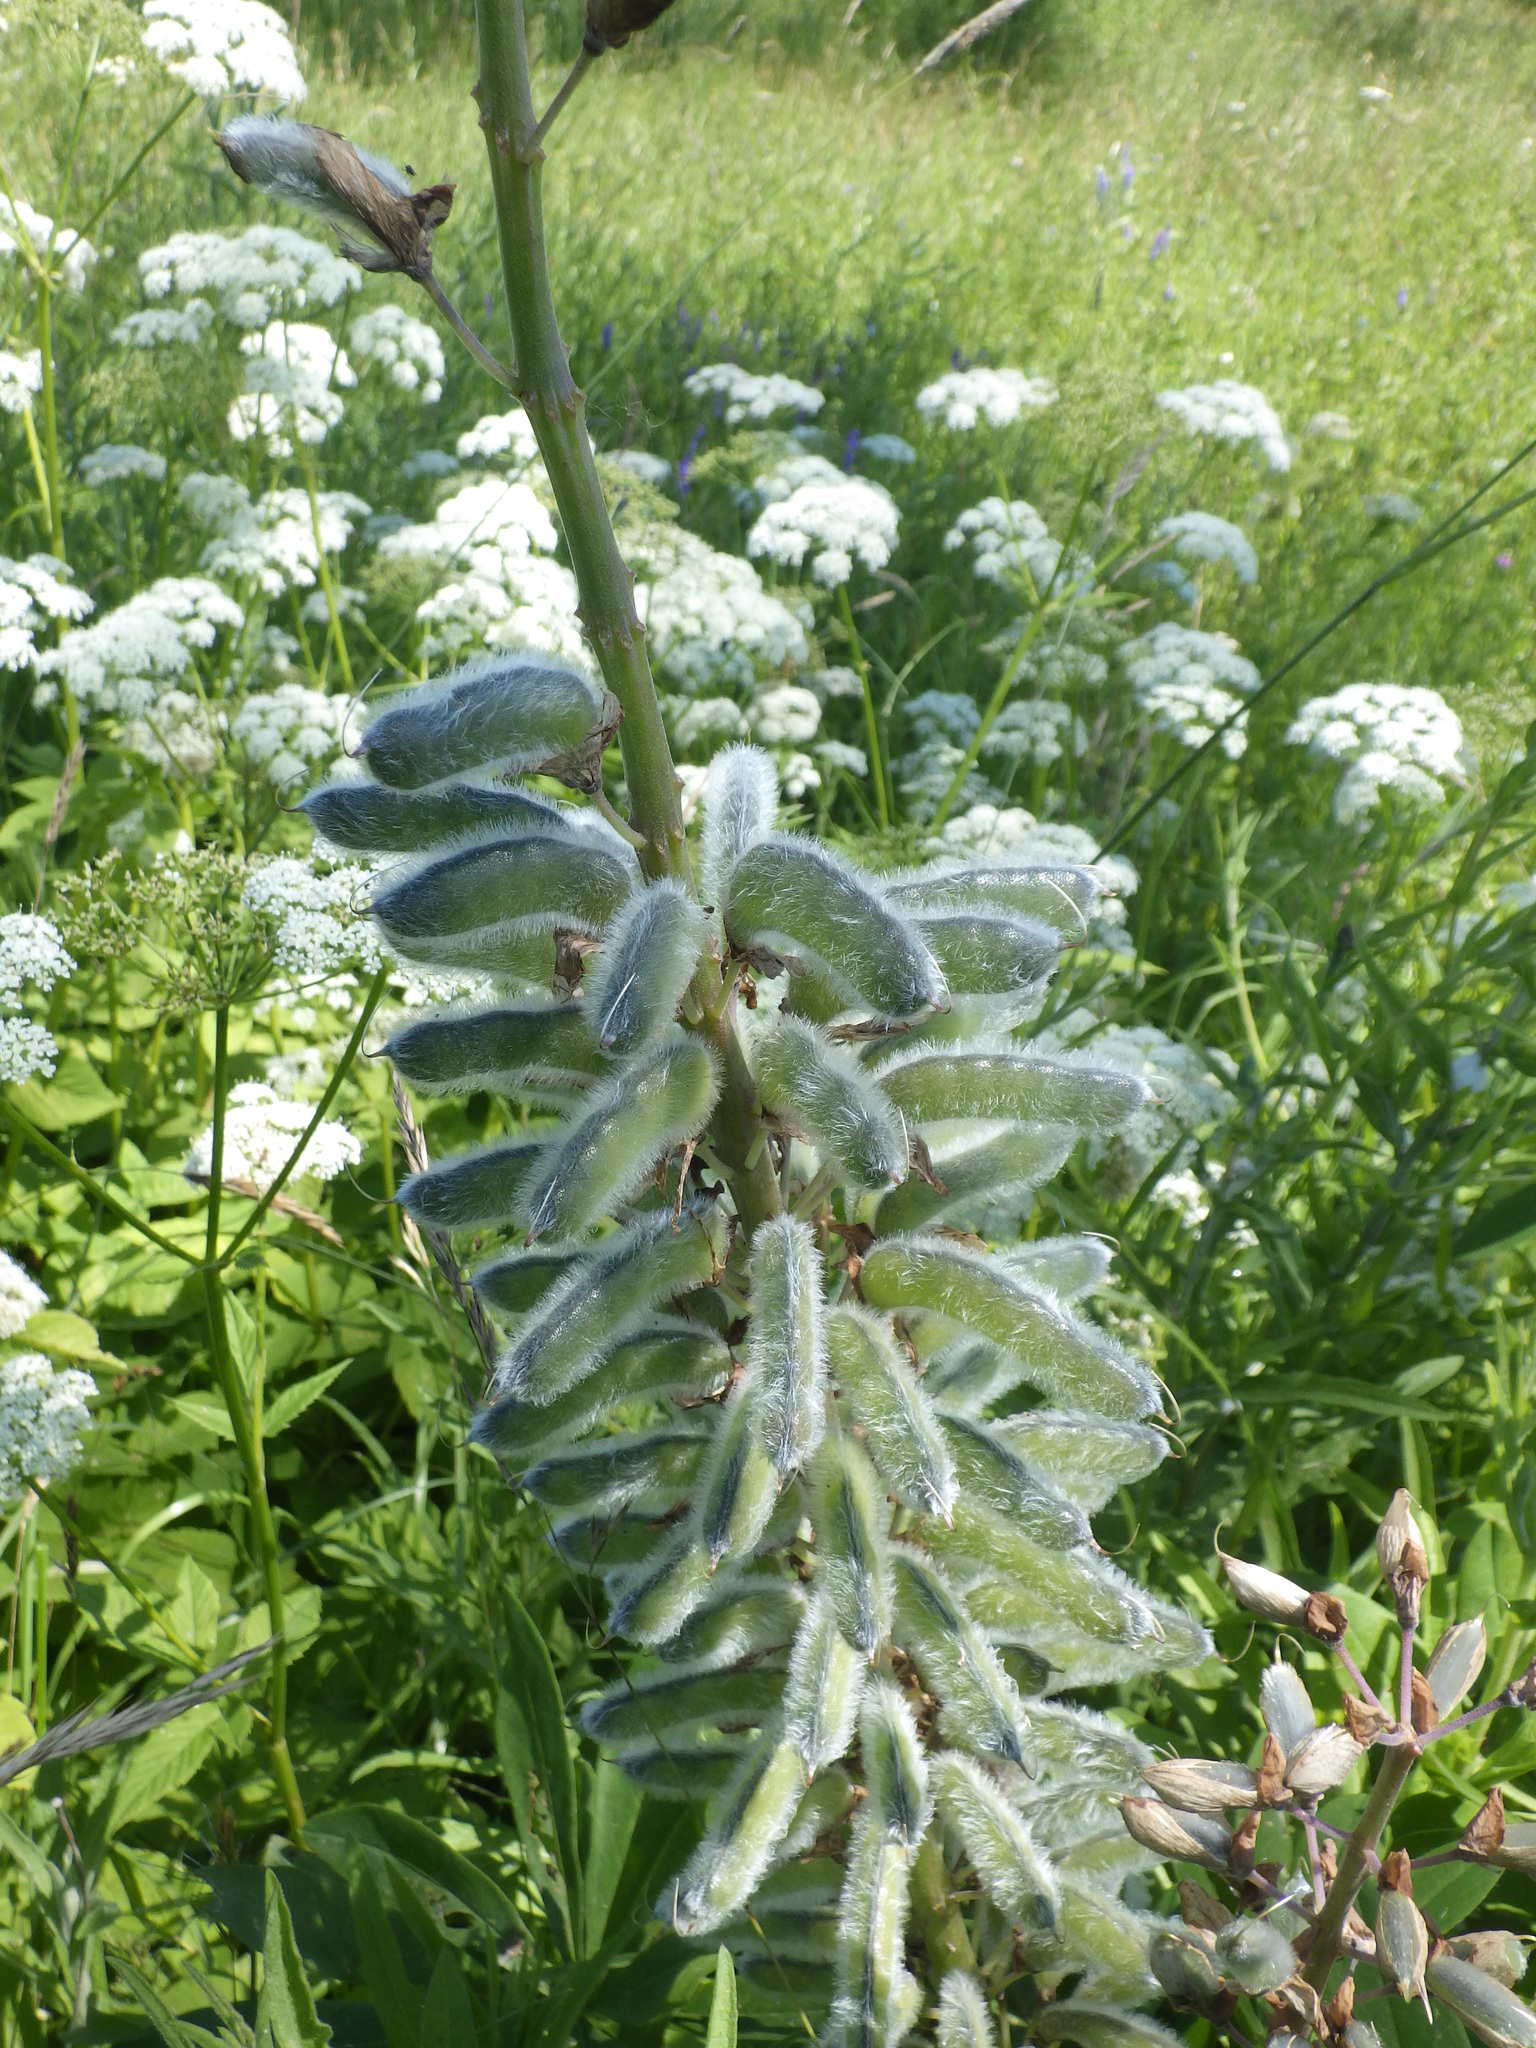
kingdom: Plantae
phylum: Tracheophyta
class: Magnoliopsida
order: Fabales
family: Fabaceae
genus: Lupinus
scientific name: Lupinus polyphyllus
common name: Garden lupin
